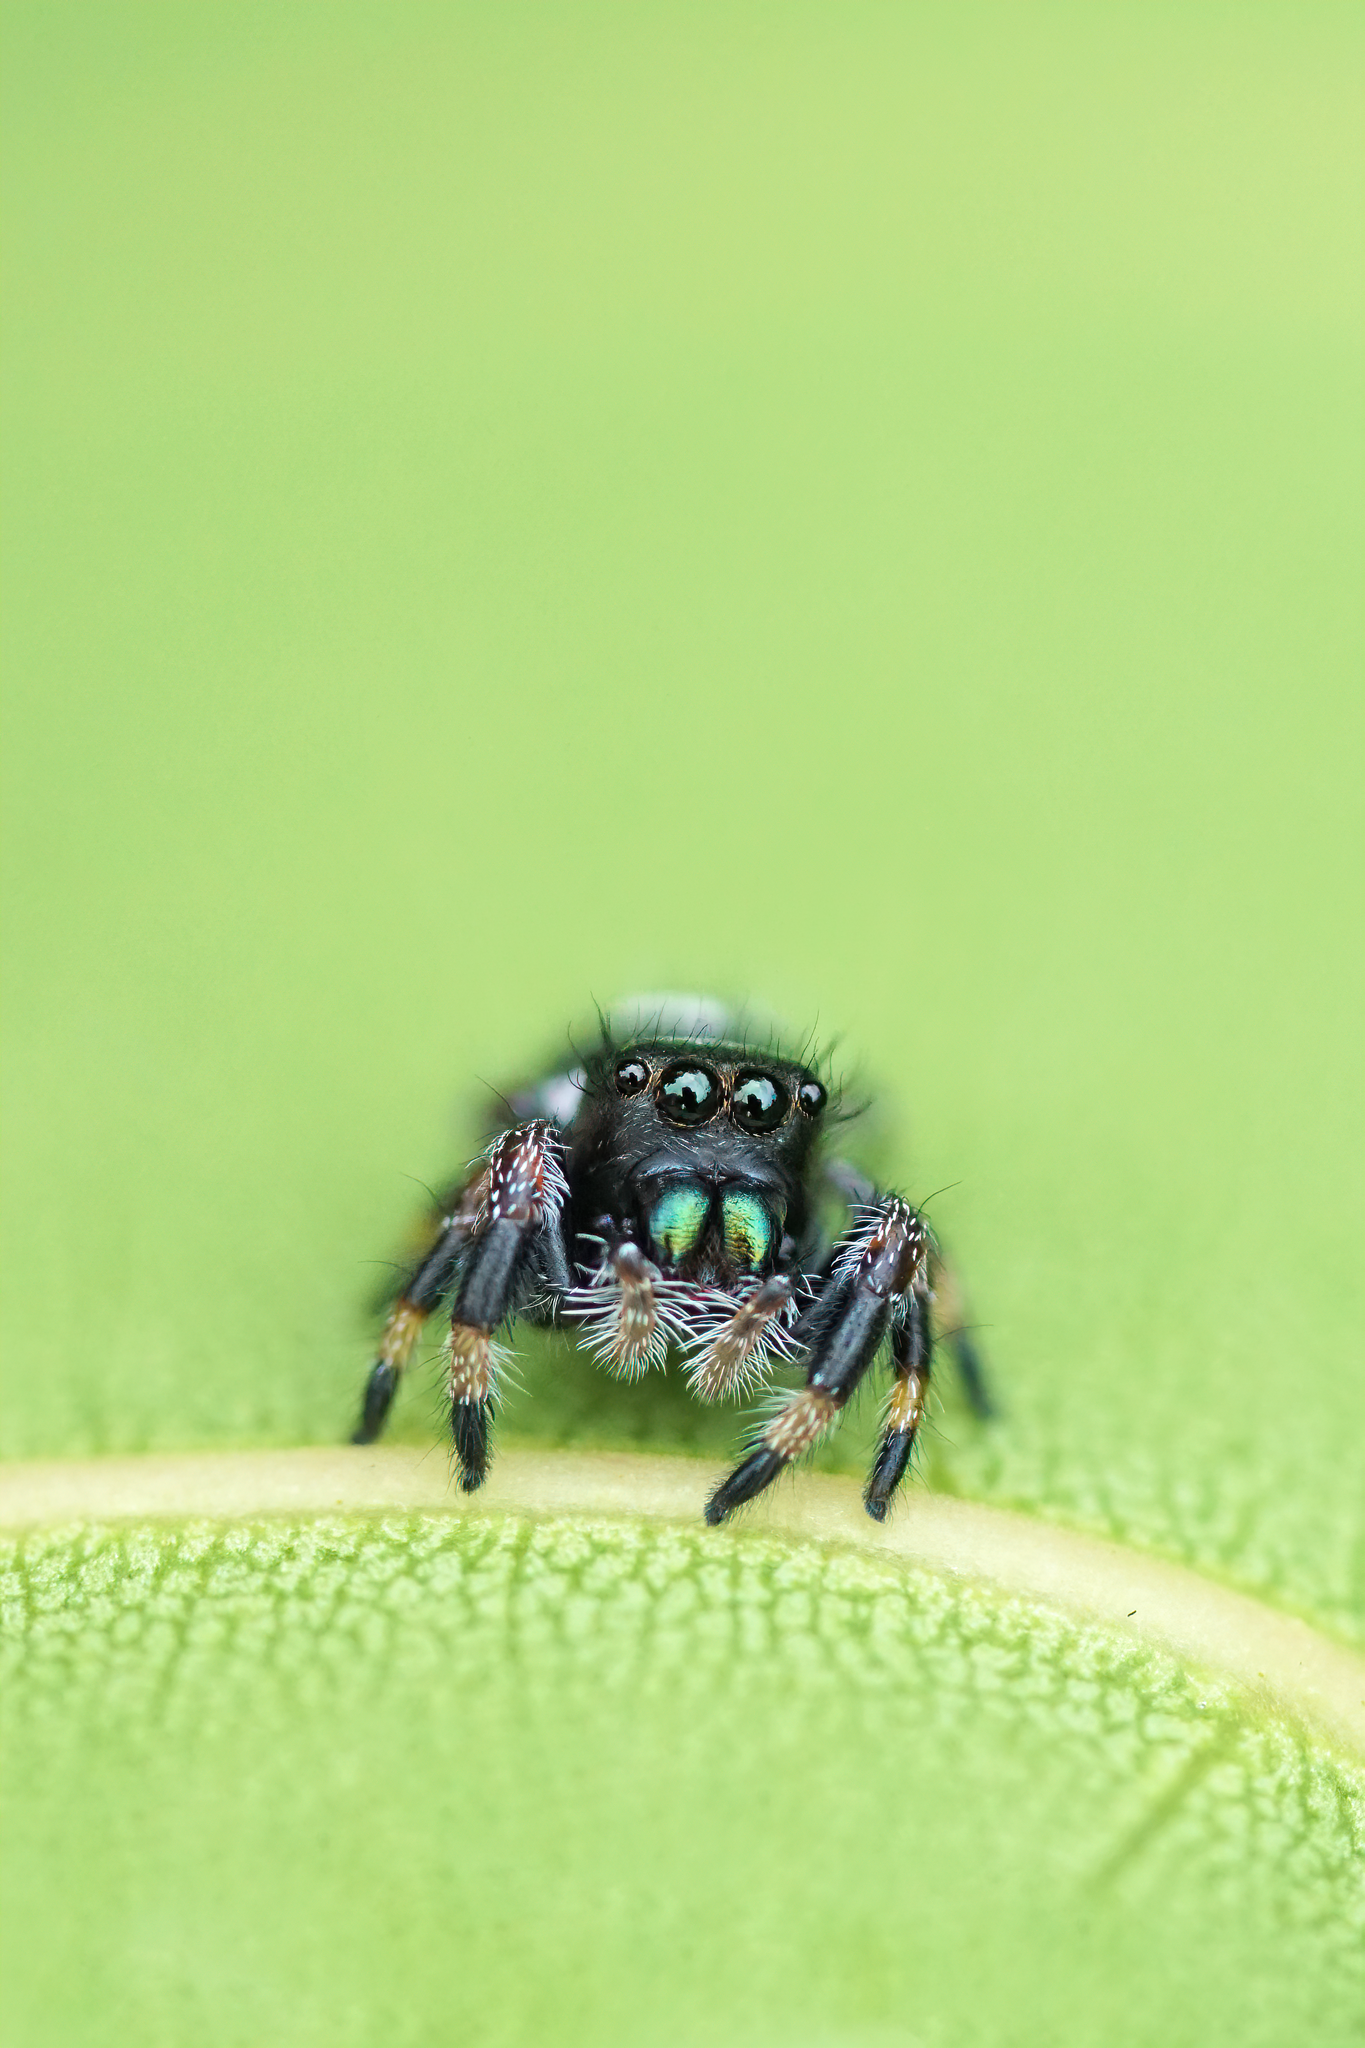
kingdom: Animalia
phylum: Arthropoda
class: Arachnida
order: Araneae
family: Salticidae
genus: Phidippus
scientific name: Phidippus regius
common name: Regal jumper
